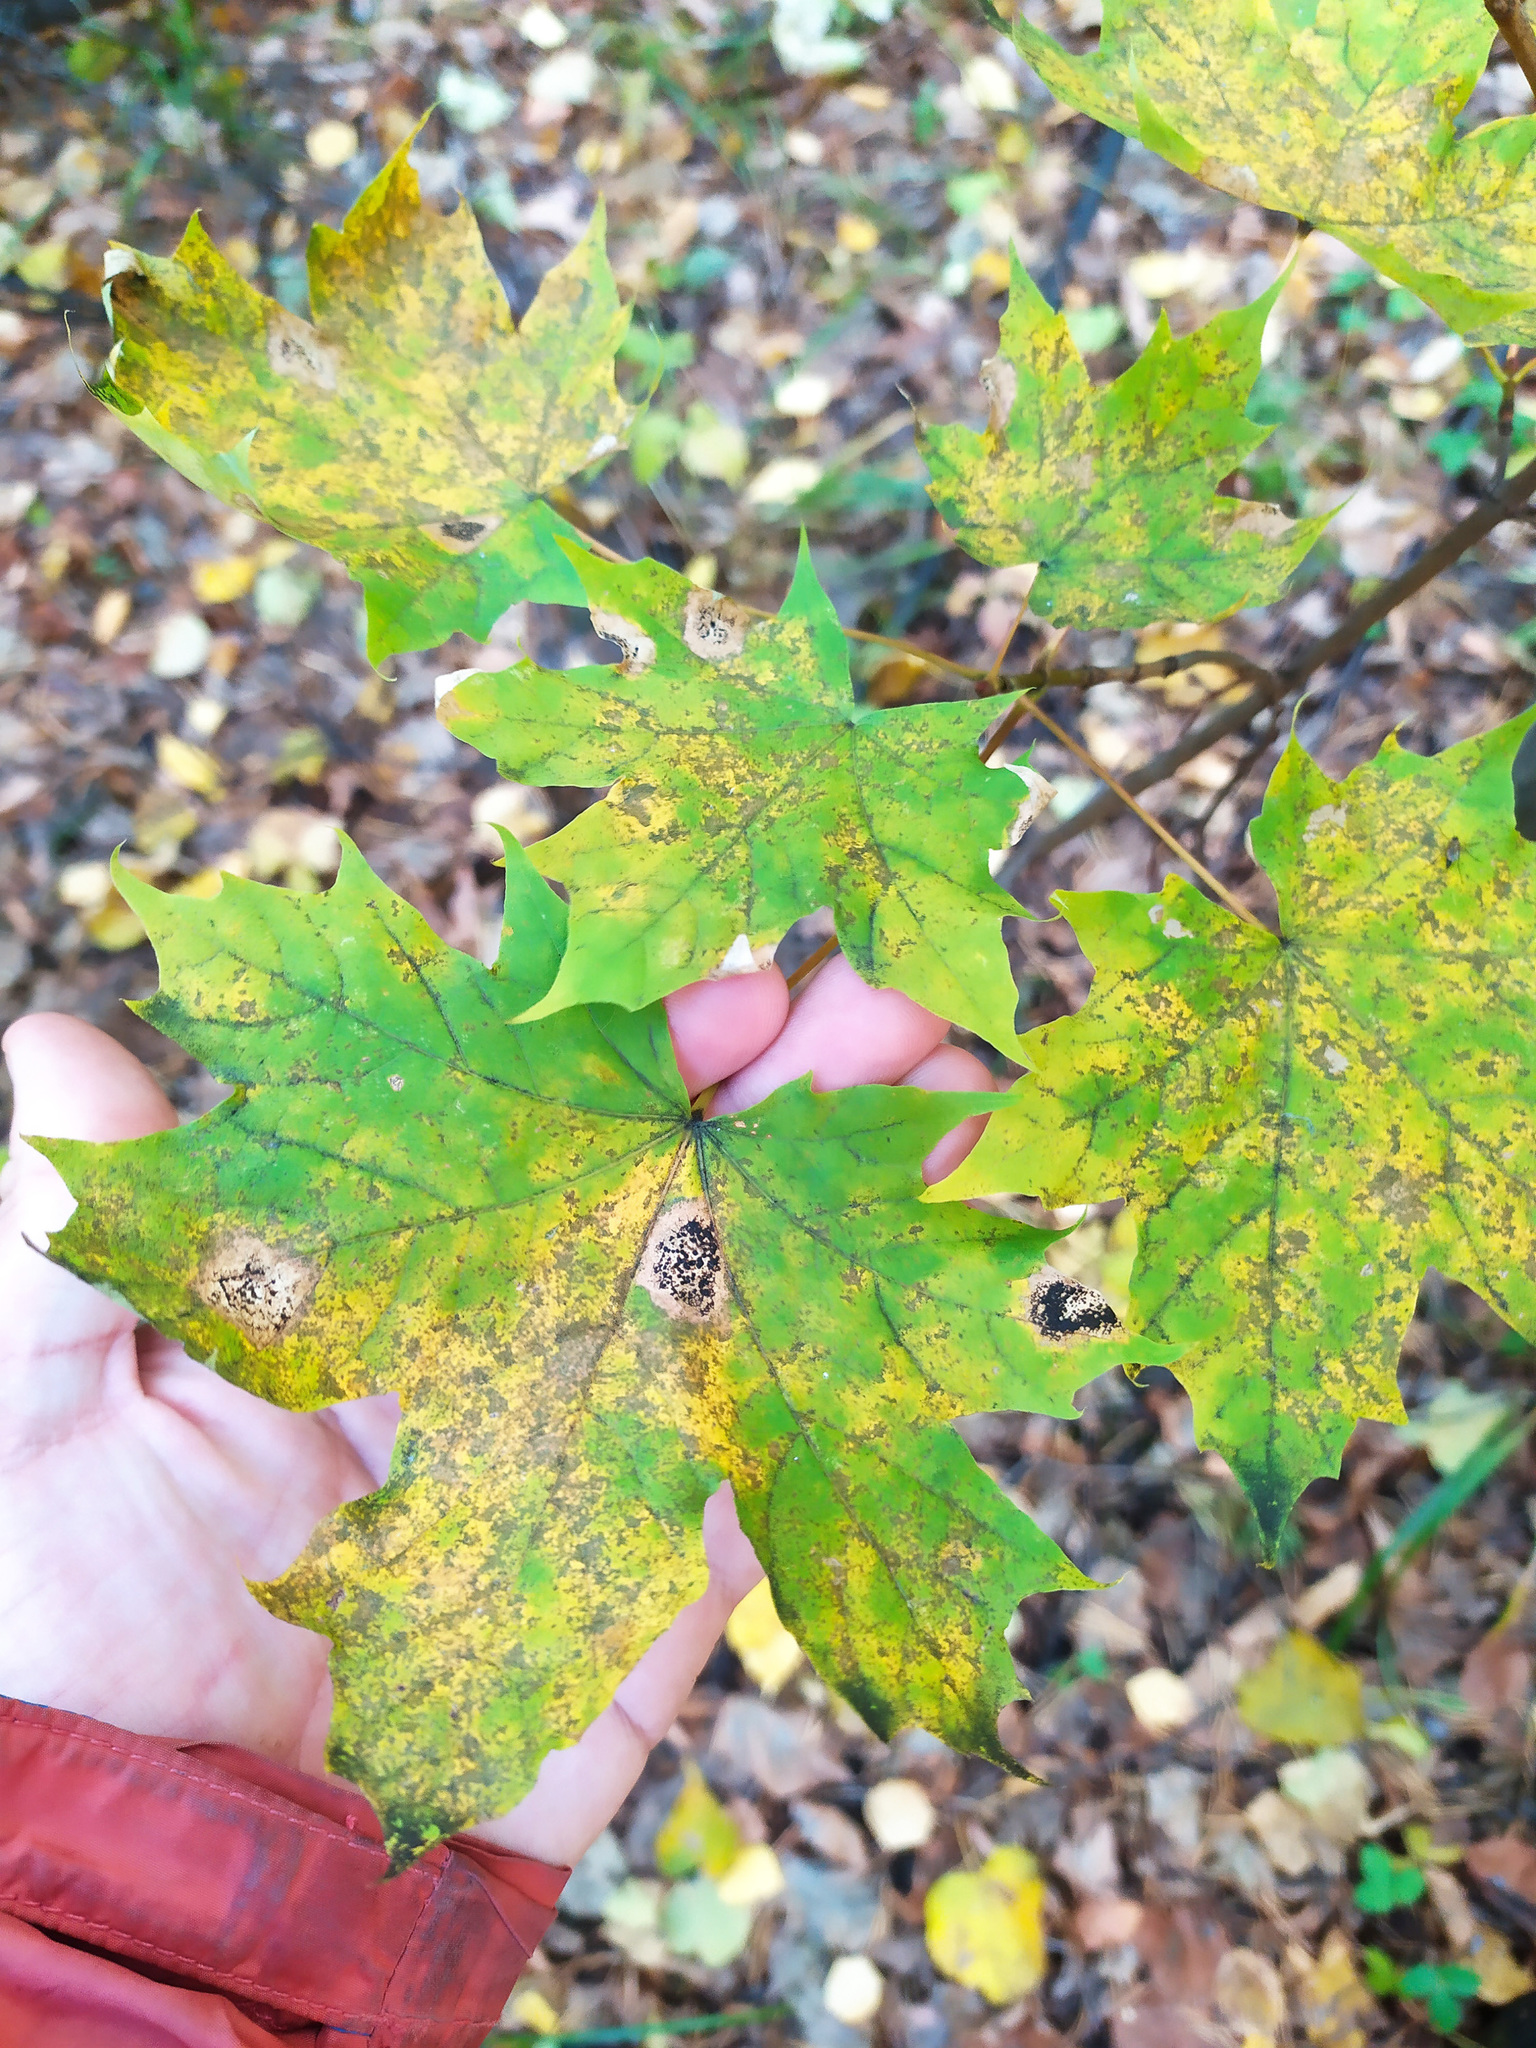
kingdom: Plantae
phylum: Tracheophyta
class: Magnoliopsida
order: Sapindales
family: Sapindaceae
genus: Acer
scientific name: Acer platanoides
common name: Norway maple
